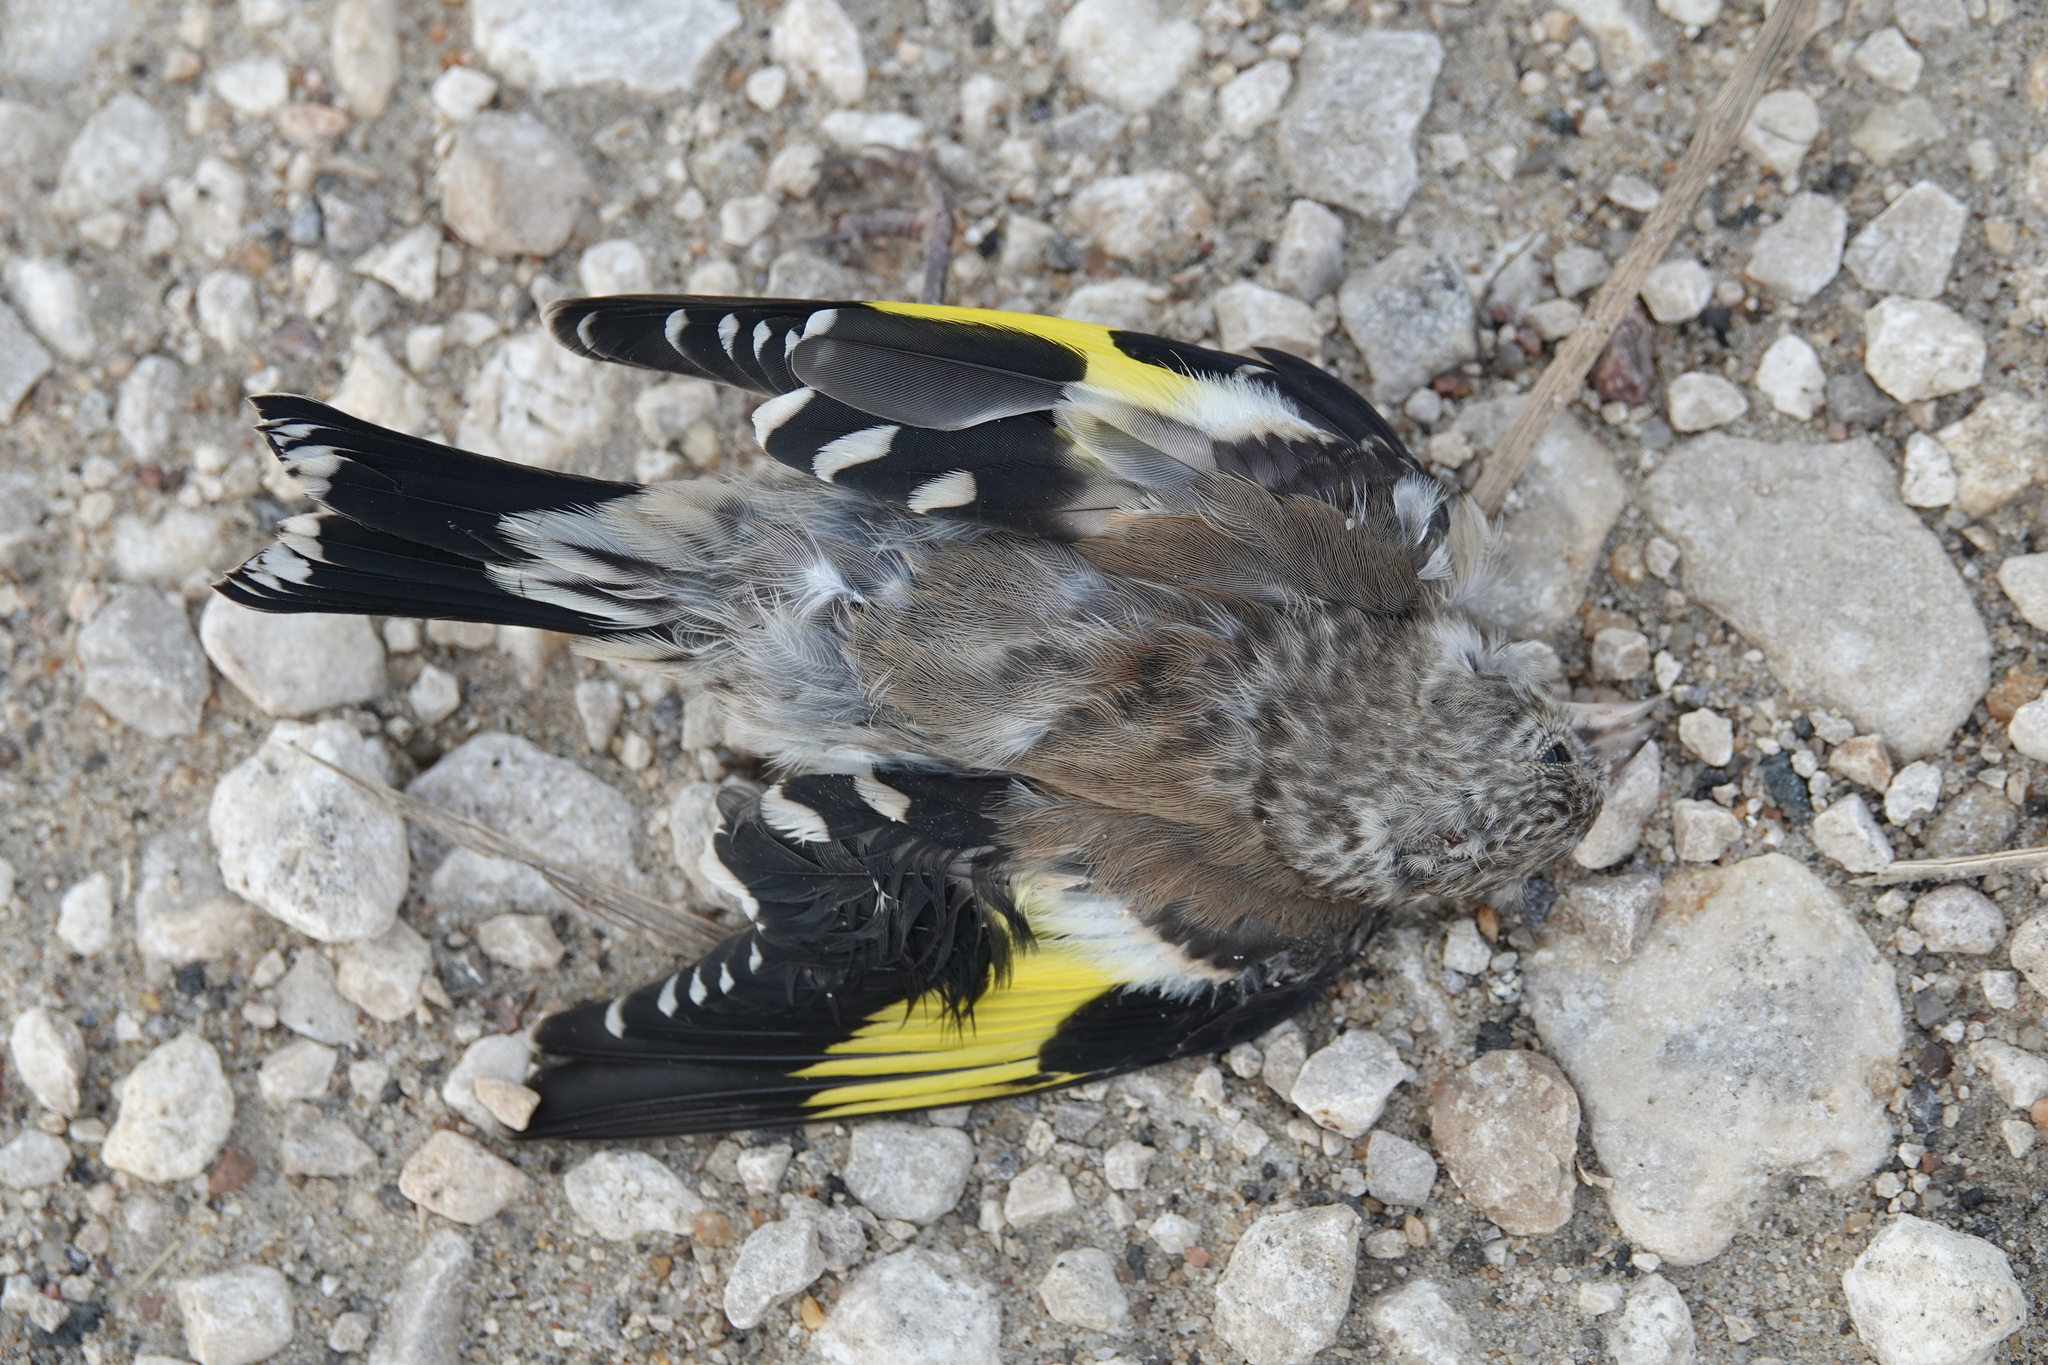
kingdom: Animalia
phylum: Chordata
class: Aves
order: Passeriformes
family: Fringillidae
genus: Carduelis
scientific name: Carduelis carduelis
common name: European goldfinch
